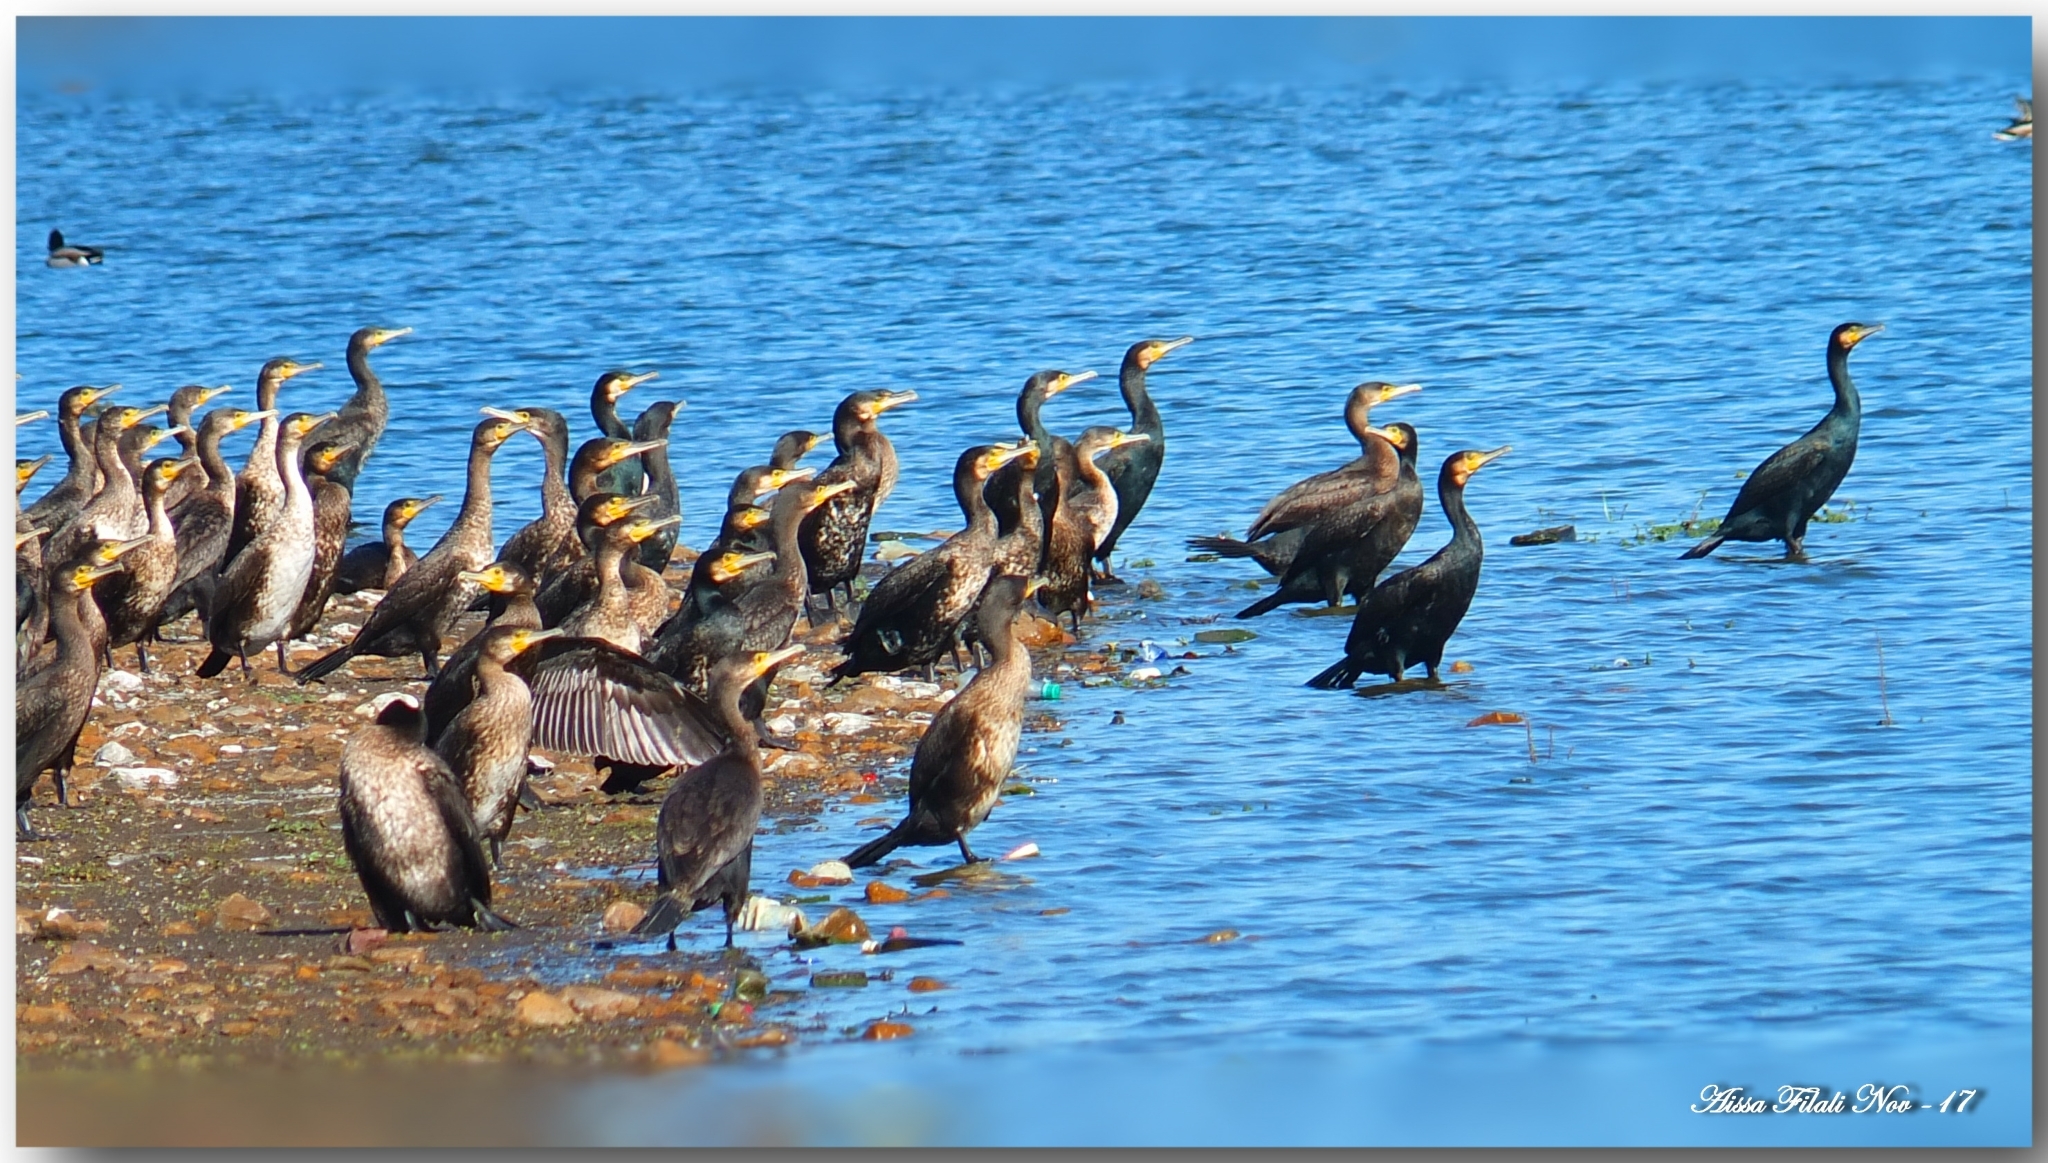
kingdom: Animalia
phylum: Chordata
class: Aves
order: Suliformes
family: Phalacrocoracidae
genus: Phalacrocorax
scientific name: Phalacrocorax carbo
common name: Great cormorant
